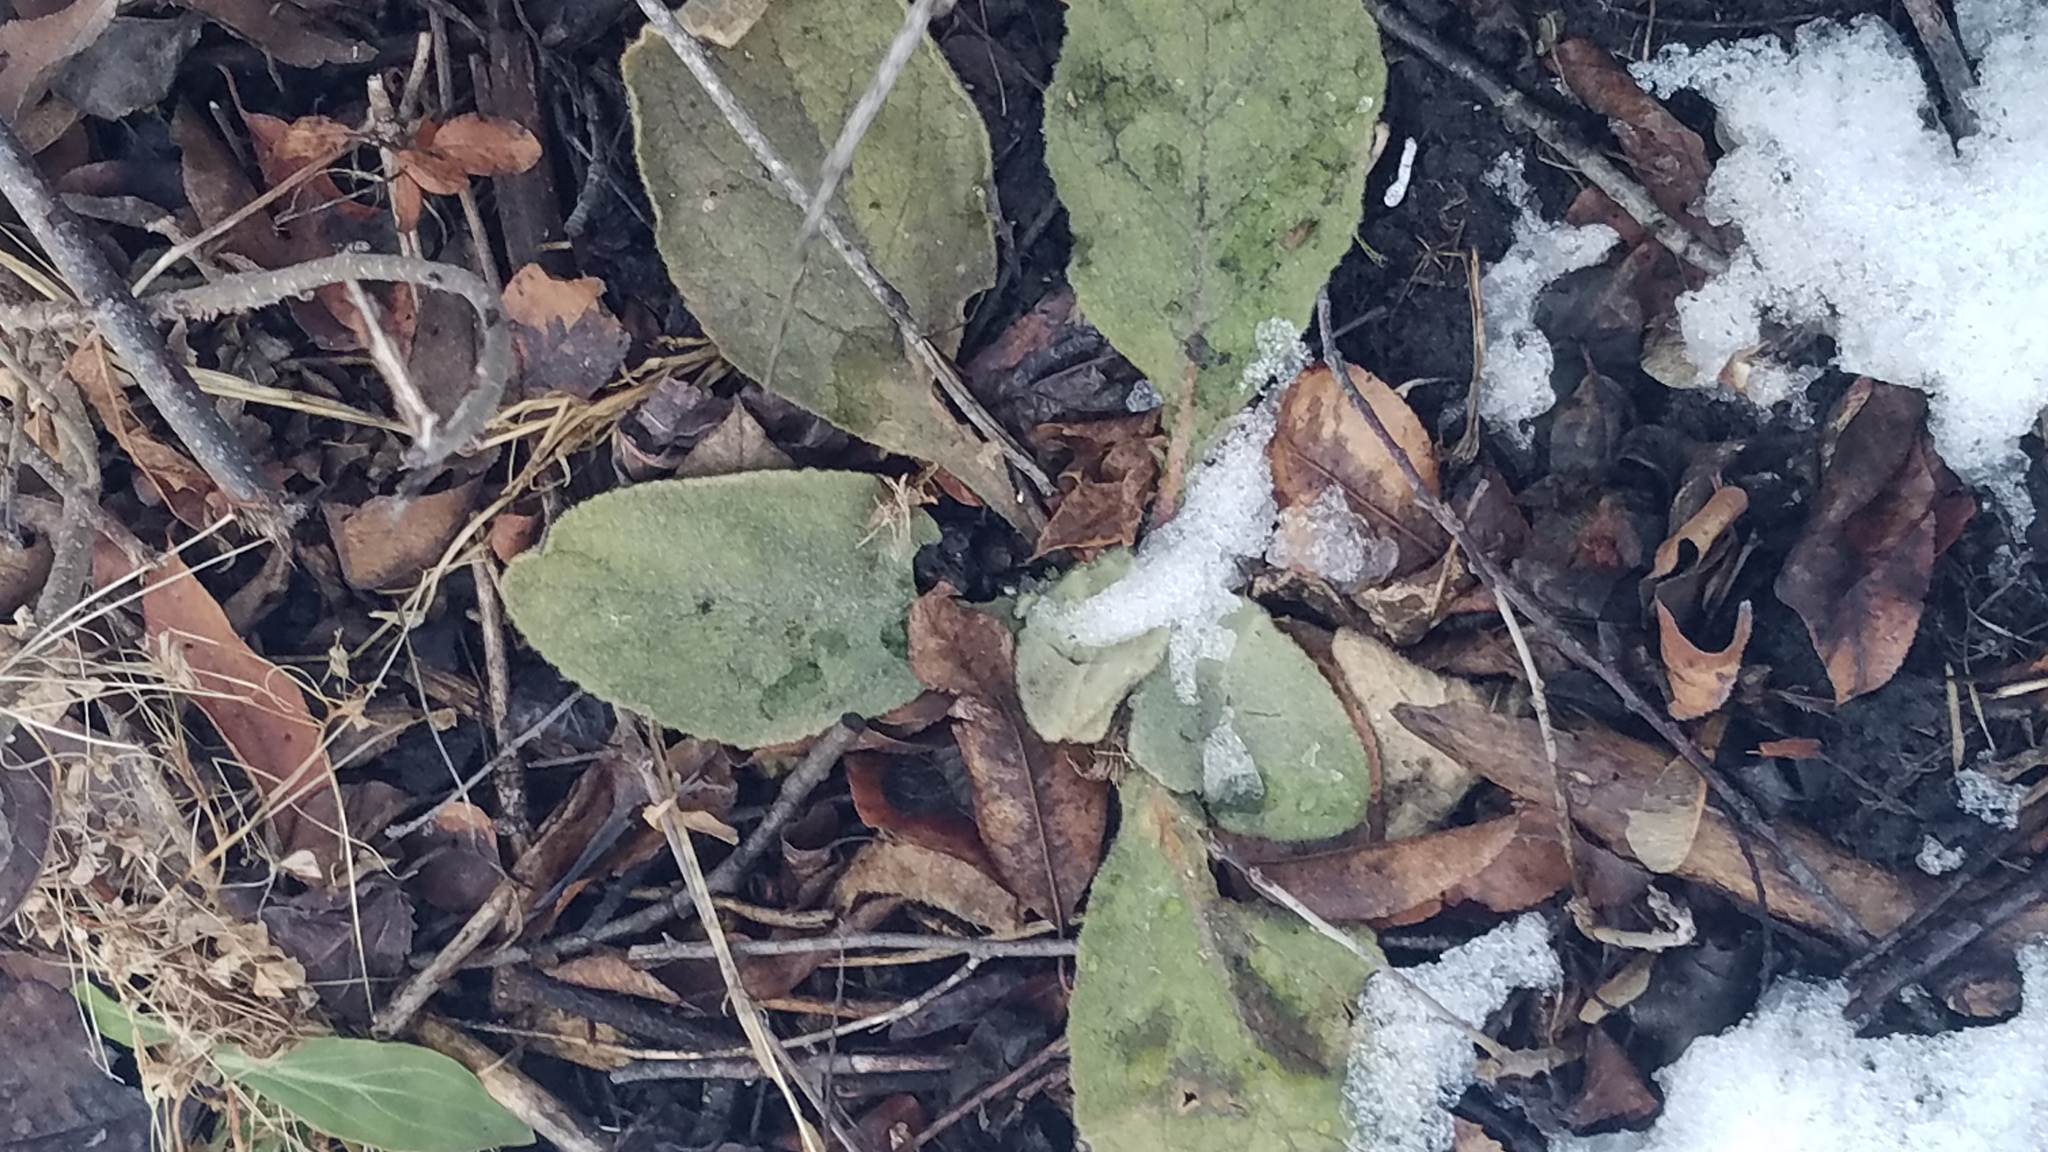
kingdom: Plantae
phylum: Tracheophyta
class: Magnoliopsida
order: Lamiales
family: Scrophulariaceae
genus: Verbascum
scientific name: Verbascum thapsus
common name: Common mullein
